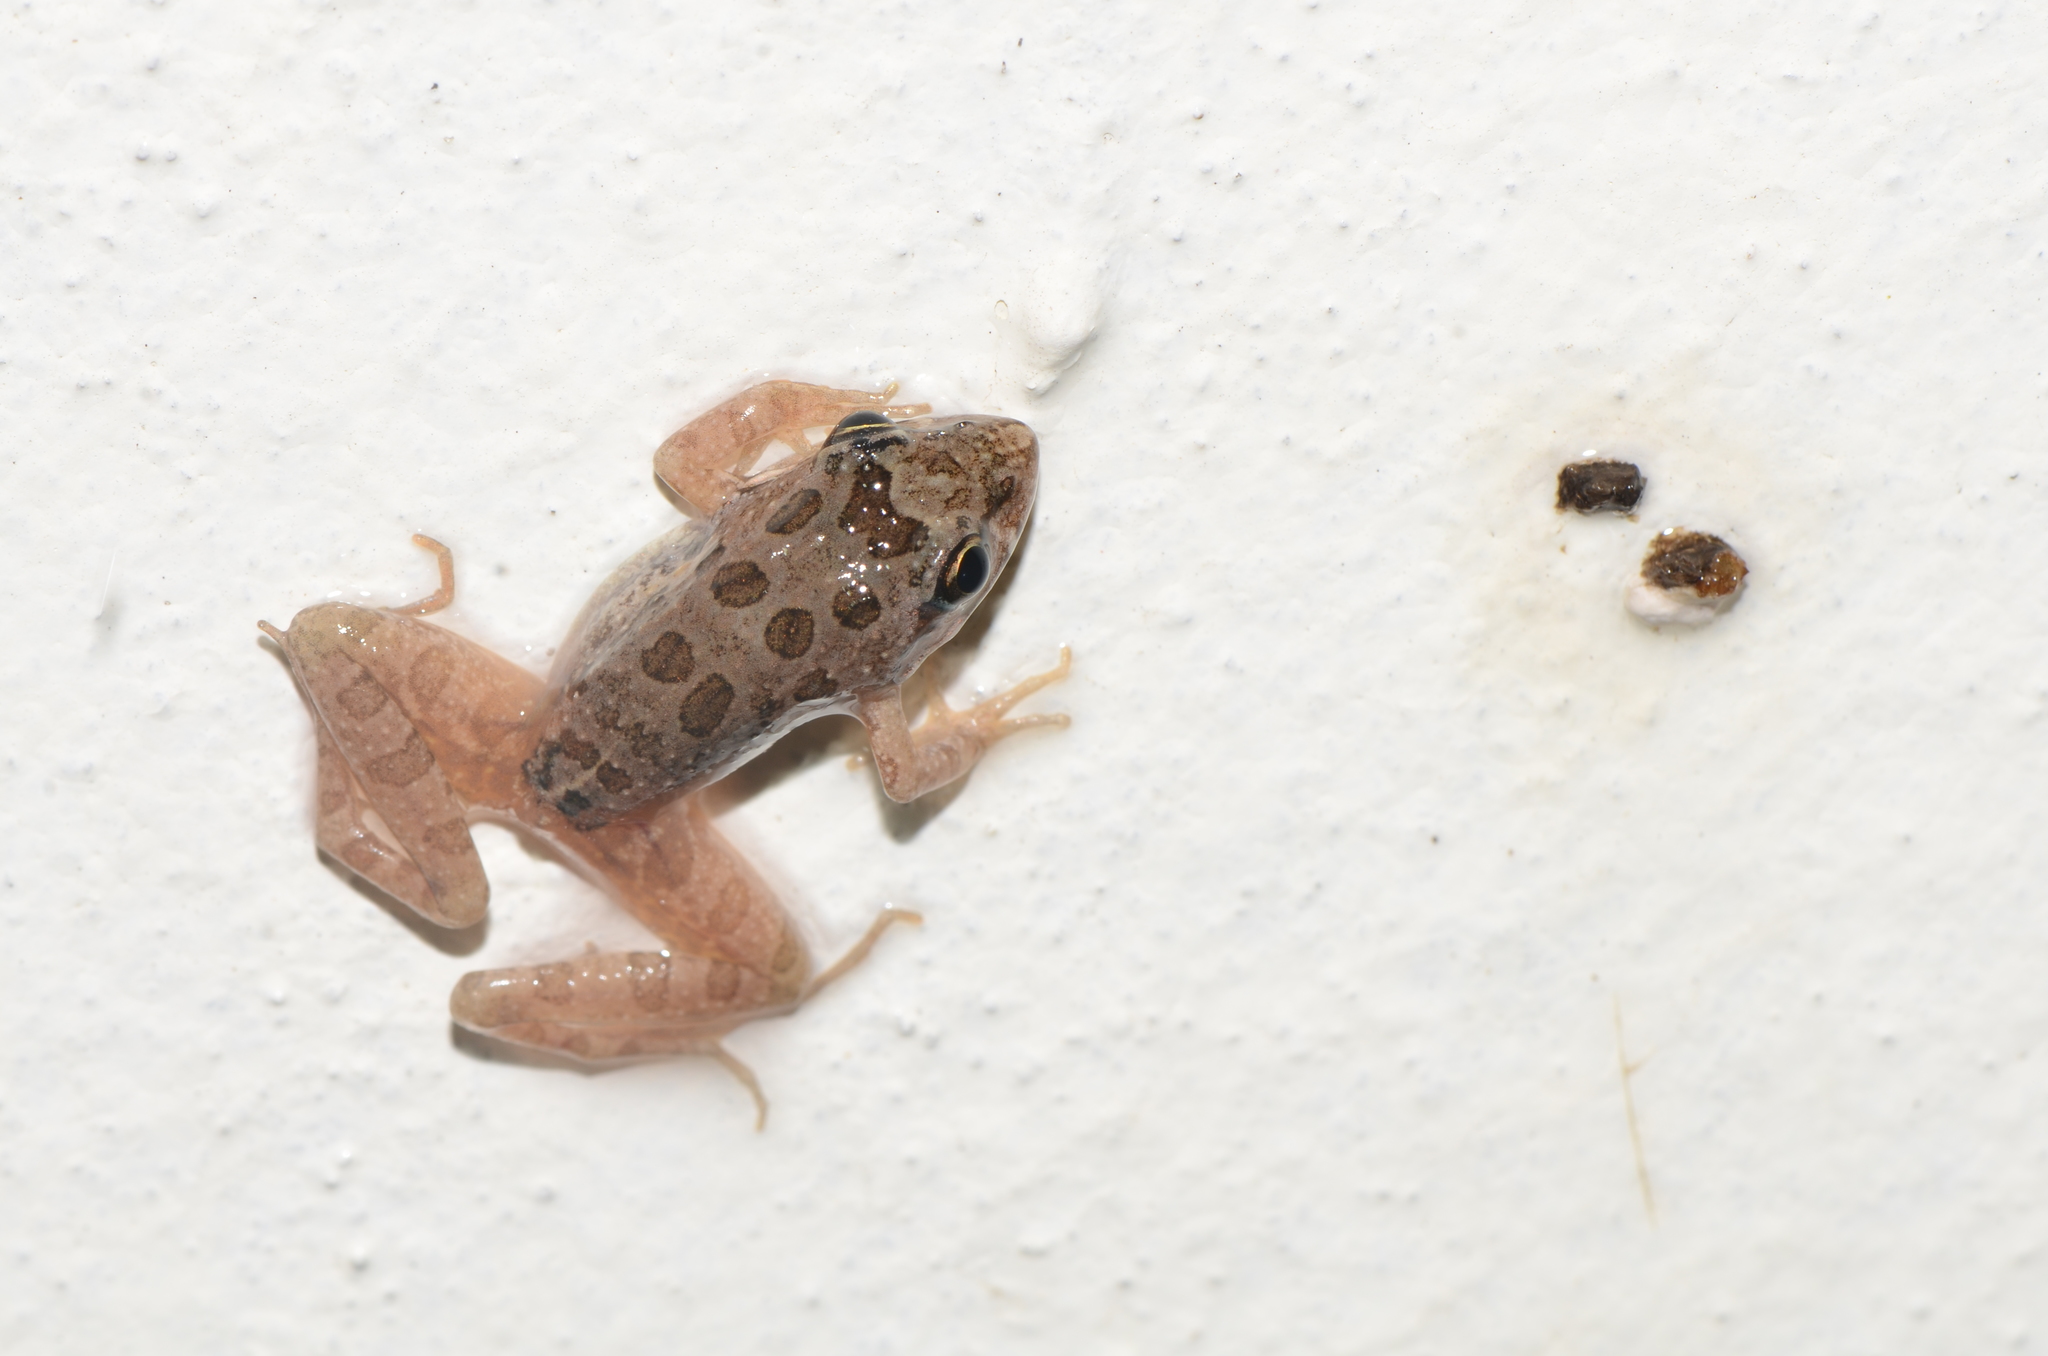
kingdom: Animalia
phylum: Chordata
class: Amphibia
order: Anura
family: Pyxicephalidae
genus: Strongylopus
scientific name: Strongylopus grayii
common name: Gray's stream frog
